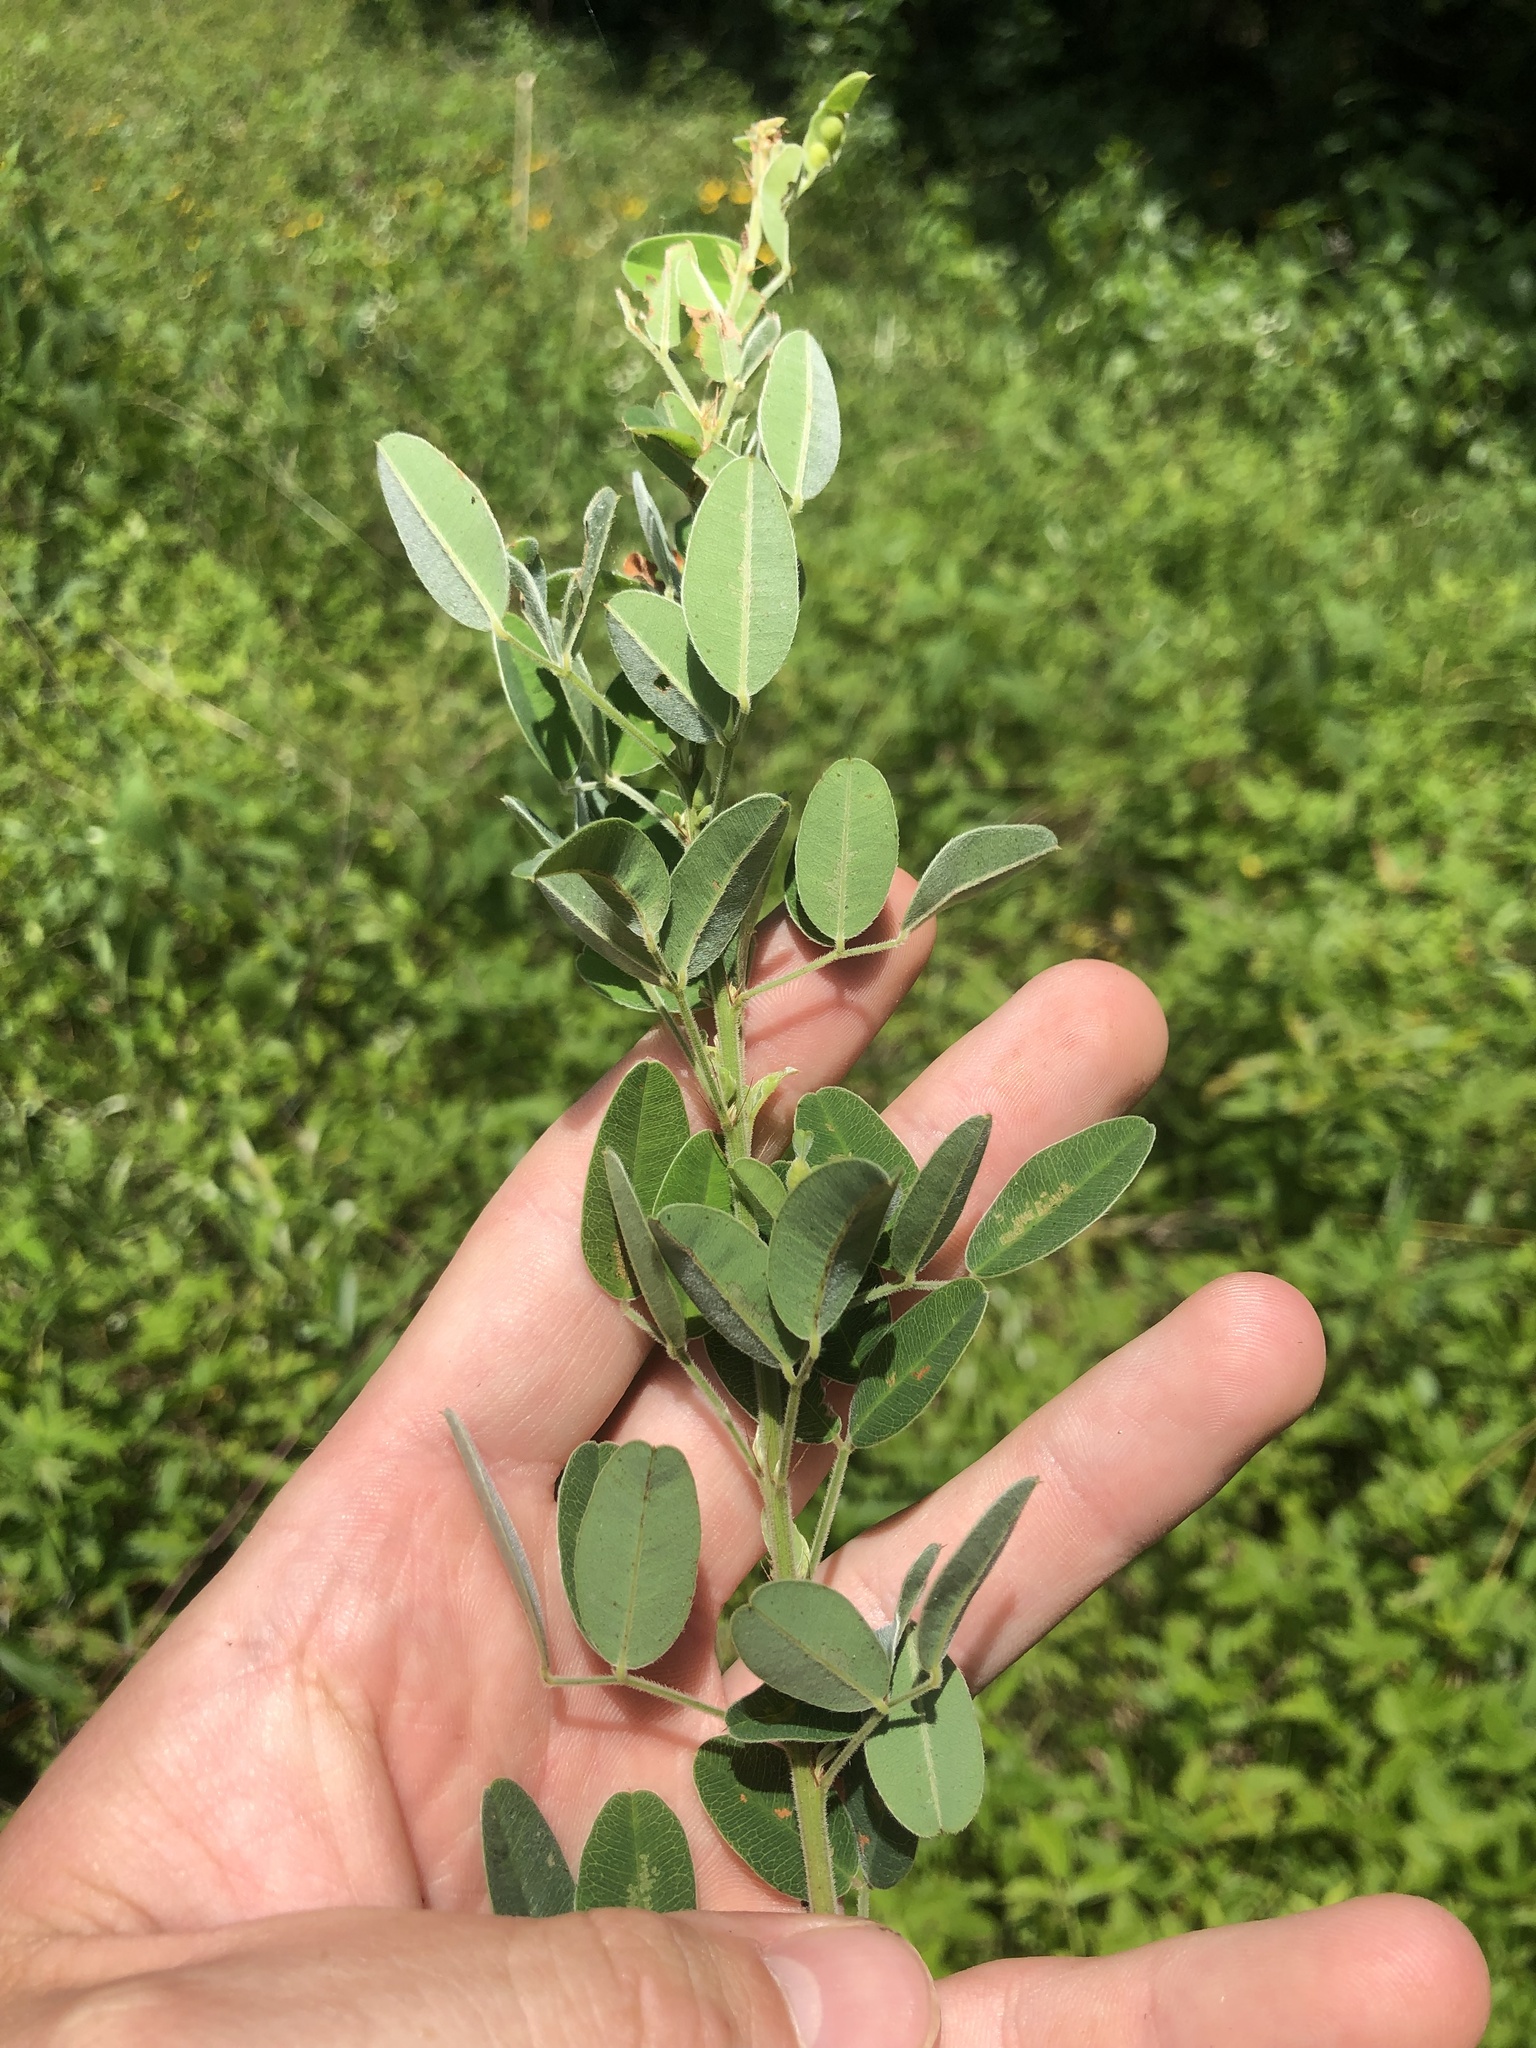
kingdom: Plantae
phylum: Tracheophyta
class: Magnoliopsida
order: Fabales
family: Fabaceae
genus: Lespedeza
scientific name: Lespedeza stuevei
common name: Tall bush-clover
